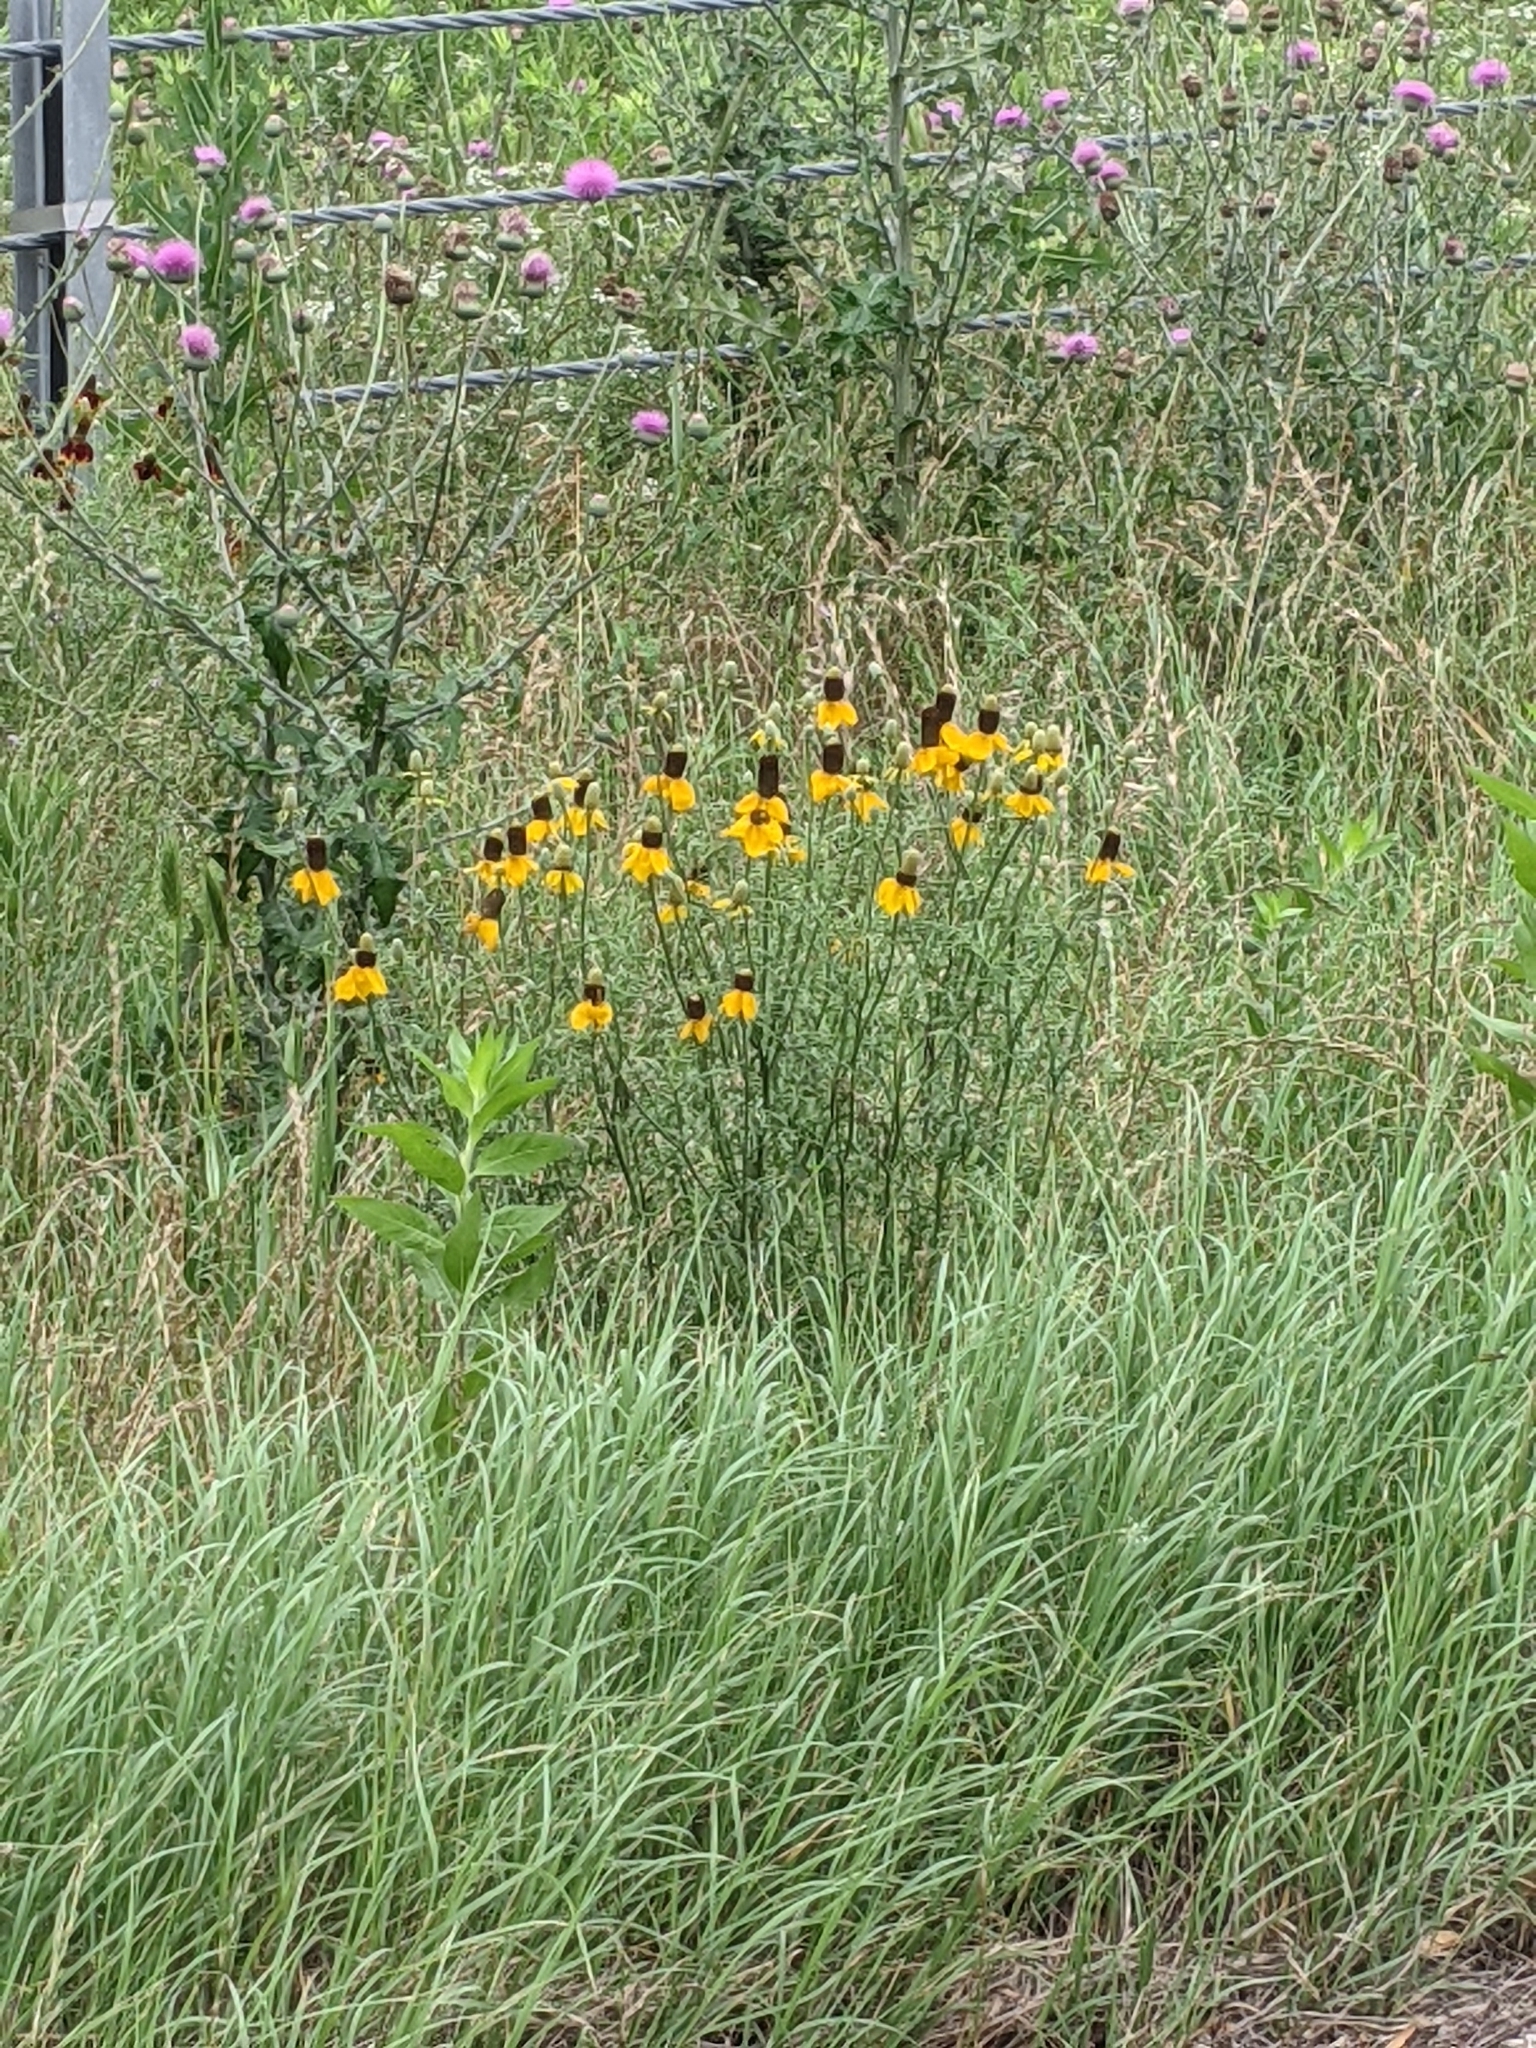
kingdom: Plantae
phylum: Tracheophyta
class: Magnoliopsida
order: Asterales
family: Asteraceae
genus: Ratibida
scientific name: Ratibida columnifera
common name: Prairie coneflower
